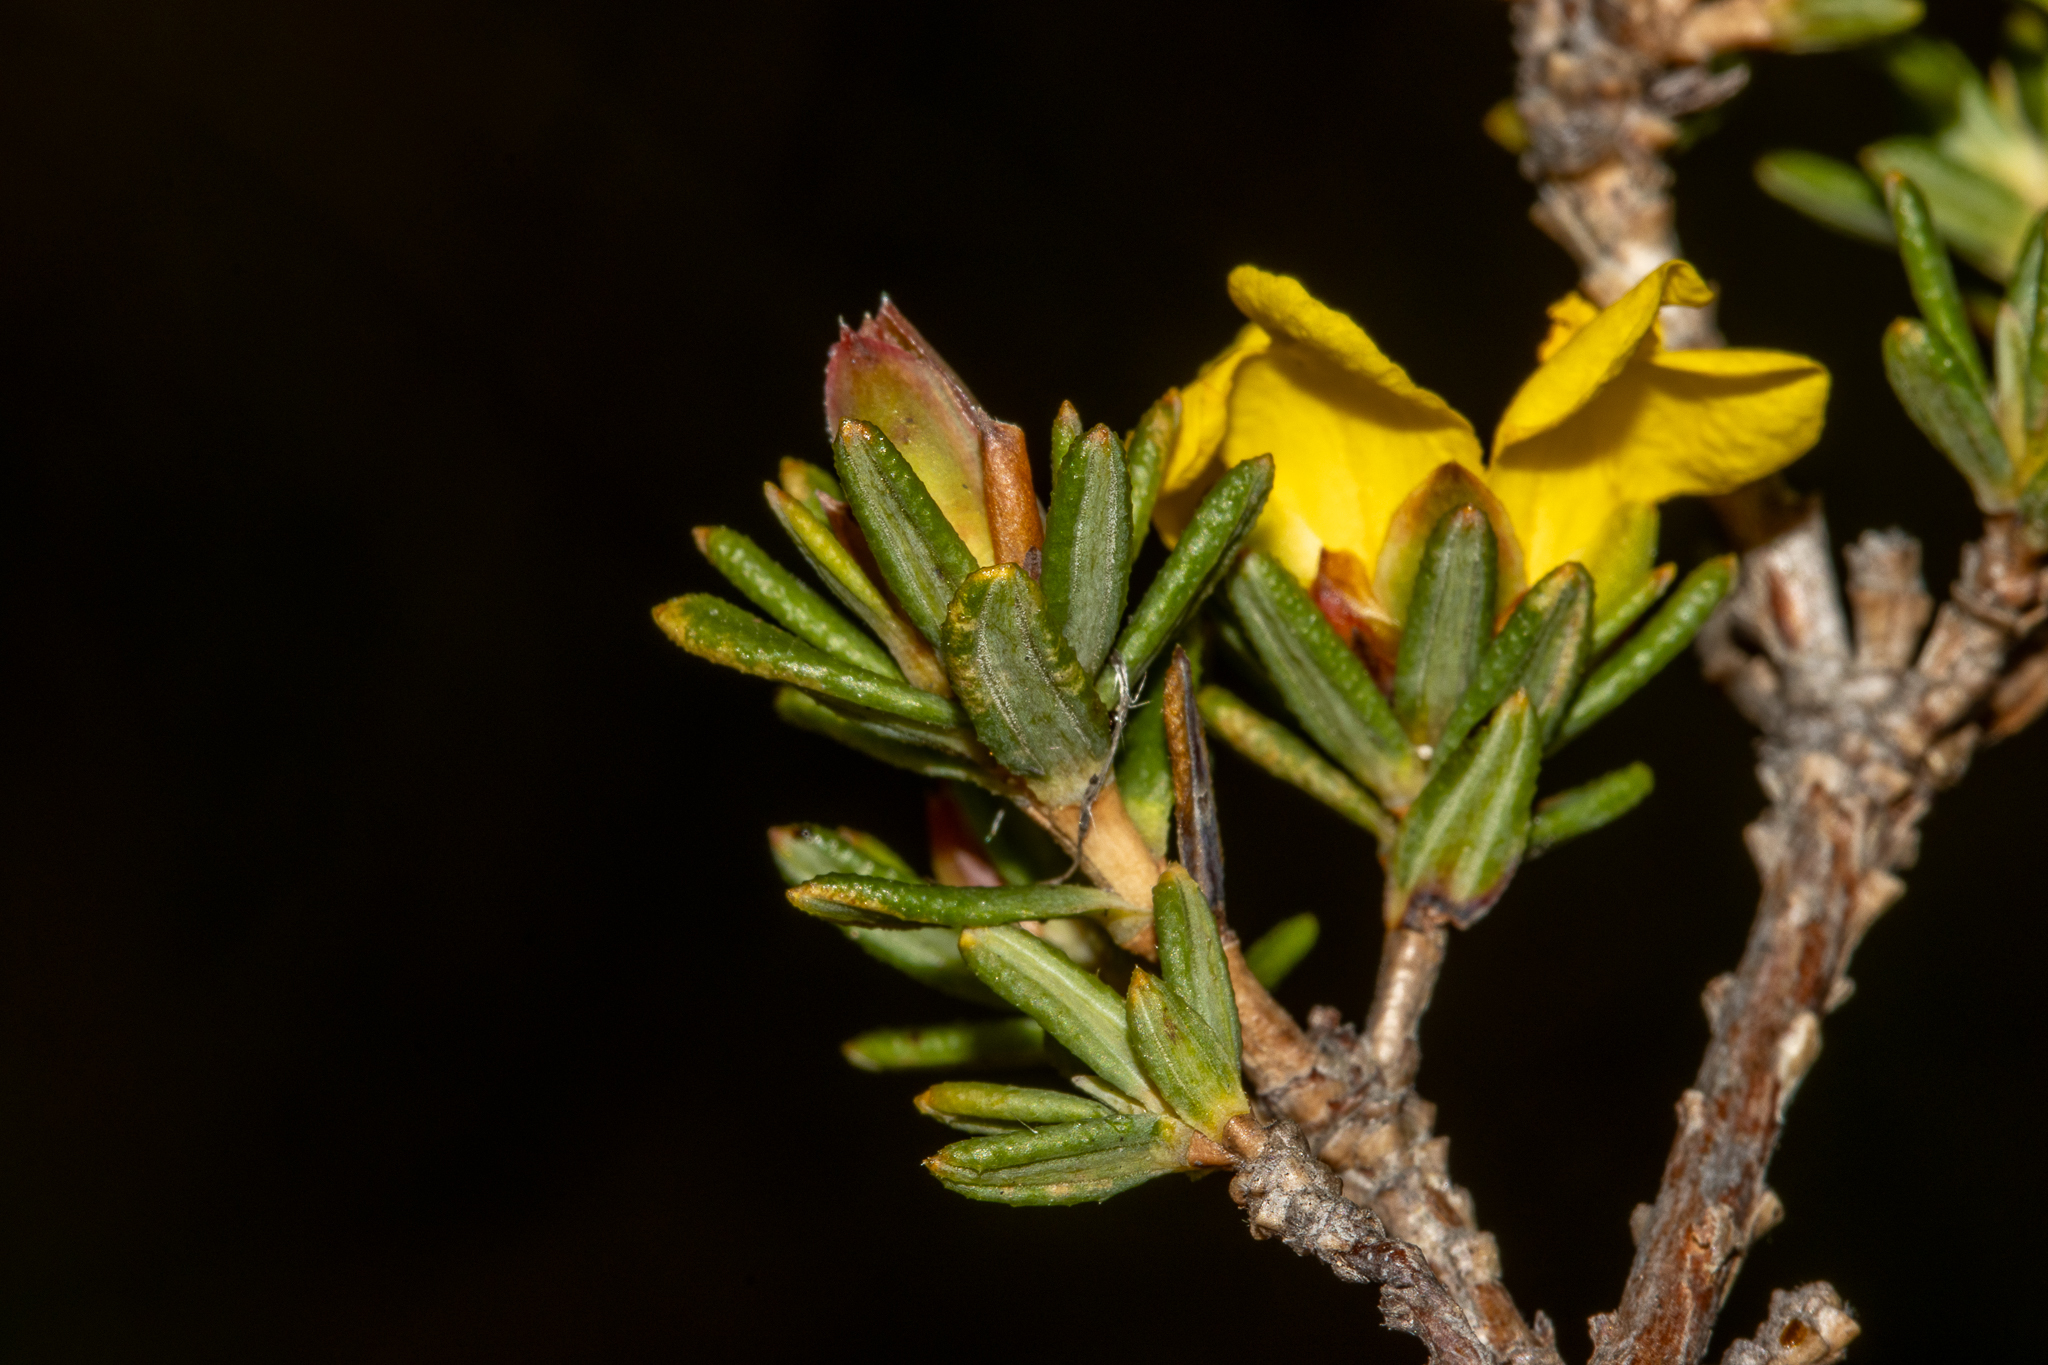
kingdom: Plantae
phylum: Tracheophyta
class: Magnoliopsida
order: Dilleniales
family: Dilleniaceae
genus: Hibbertia
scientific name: Hibbertia crassifolia
